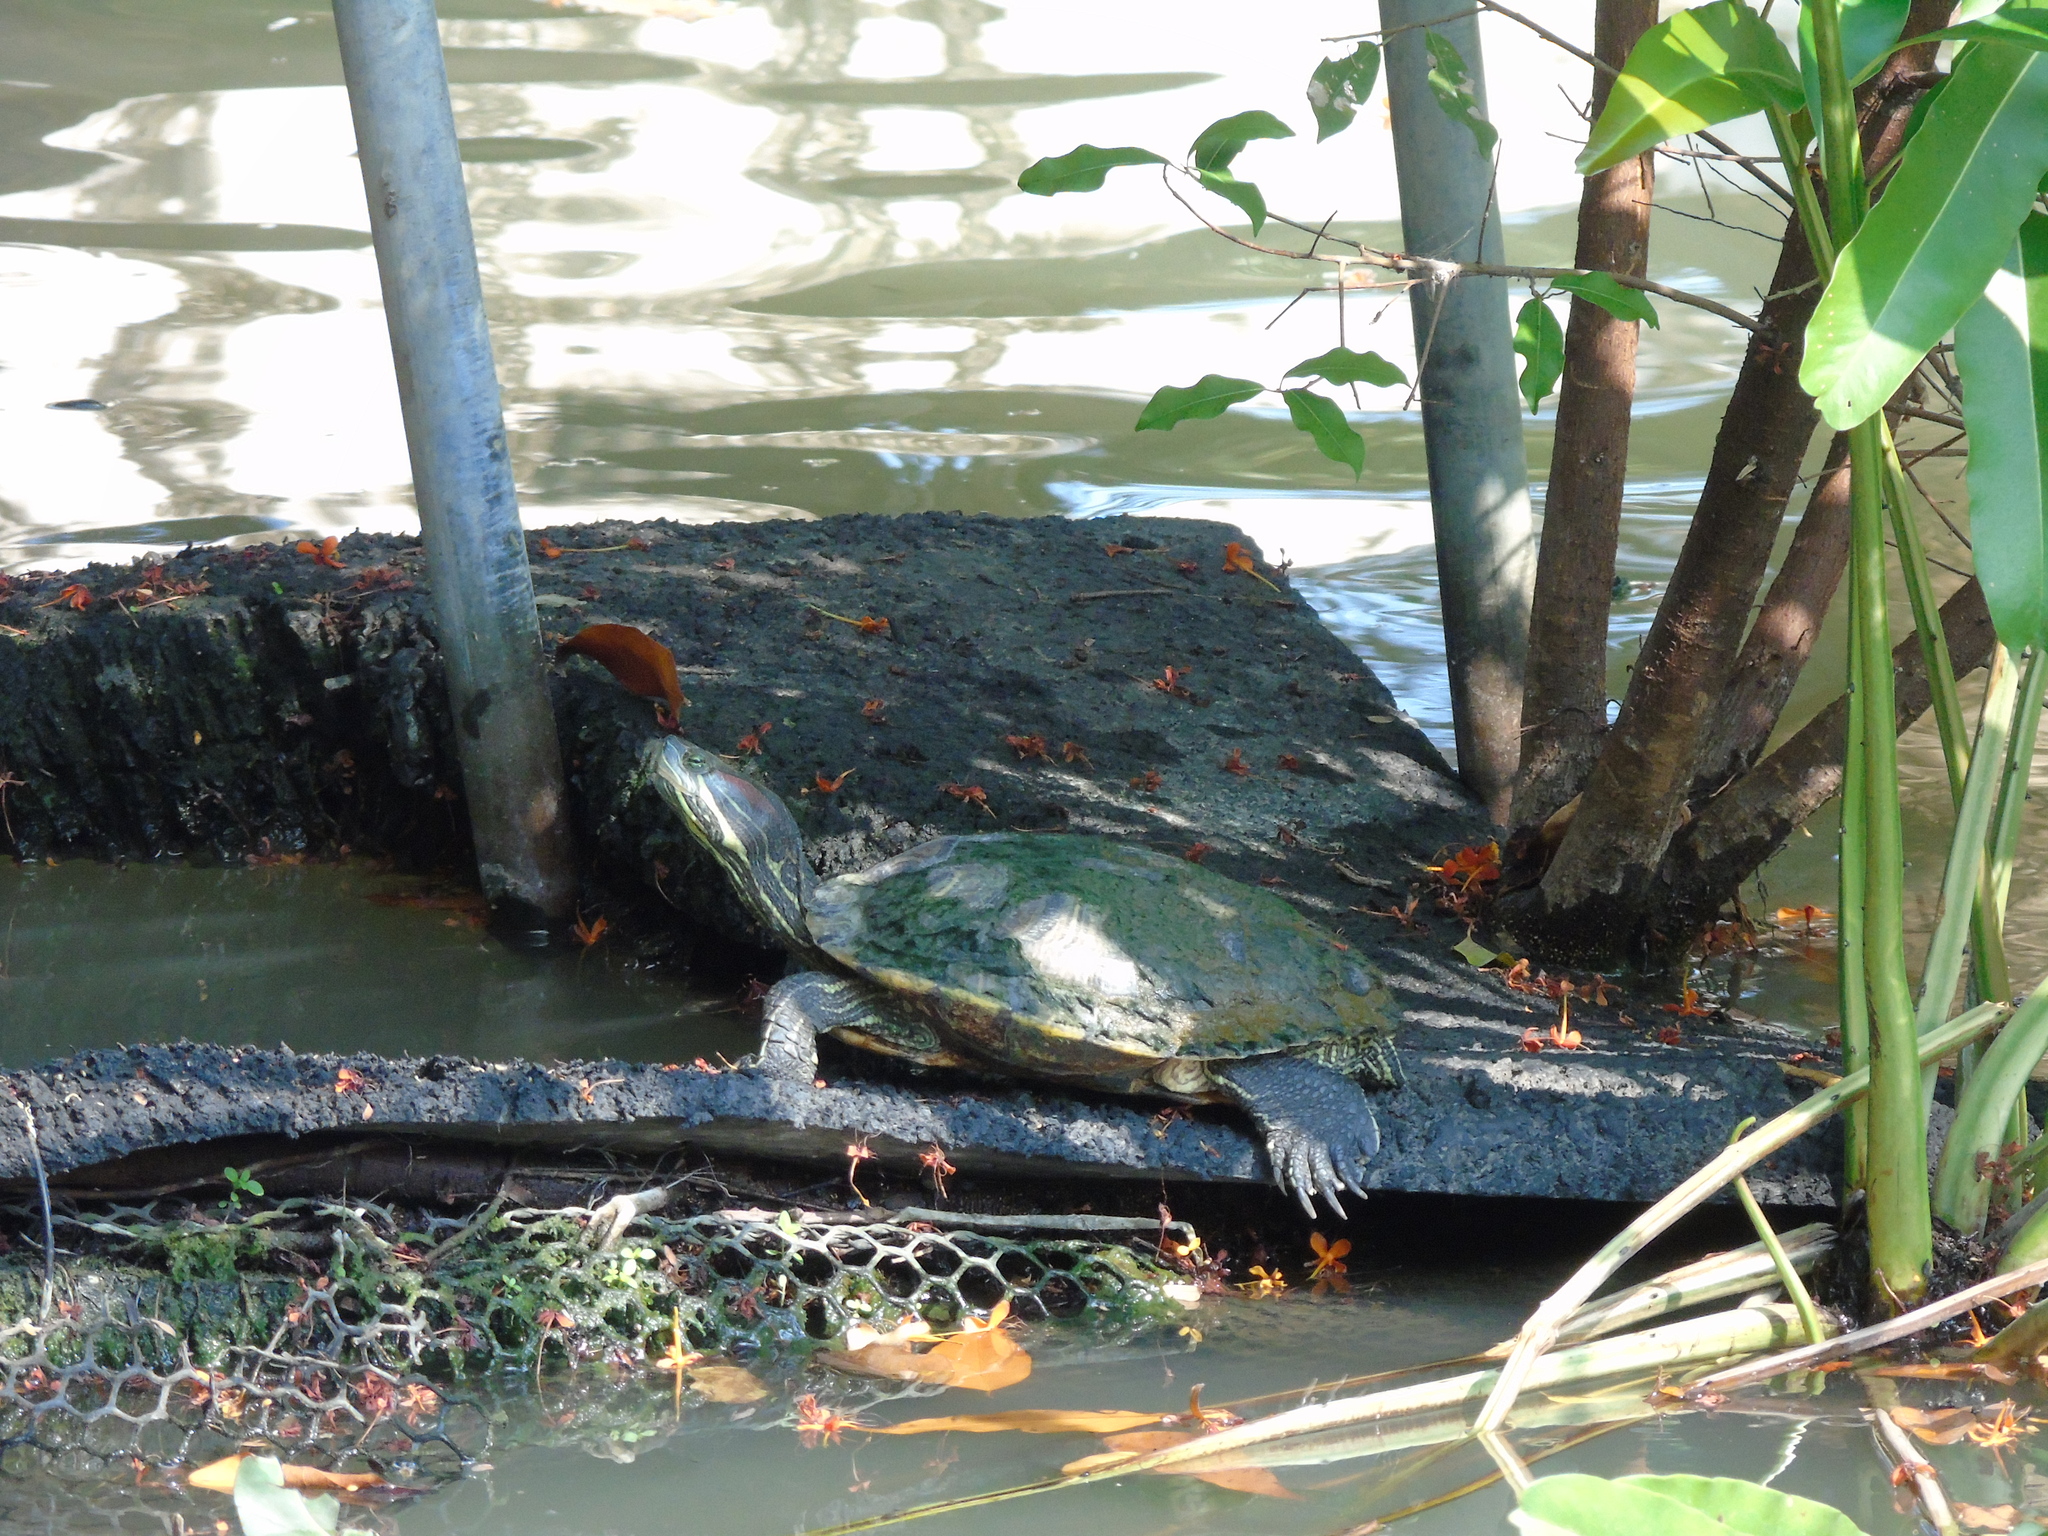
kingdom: Animalia
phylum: Chordata
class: Testudines
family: Emydidae
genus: Trachemys
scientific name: Trachemys scripta
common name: Slider
